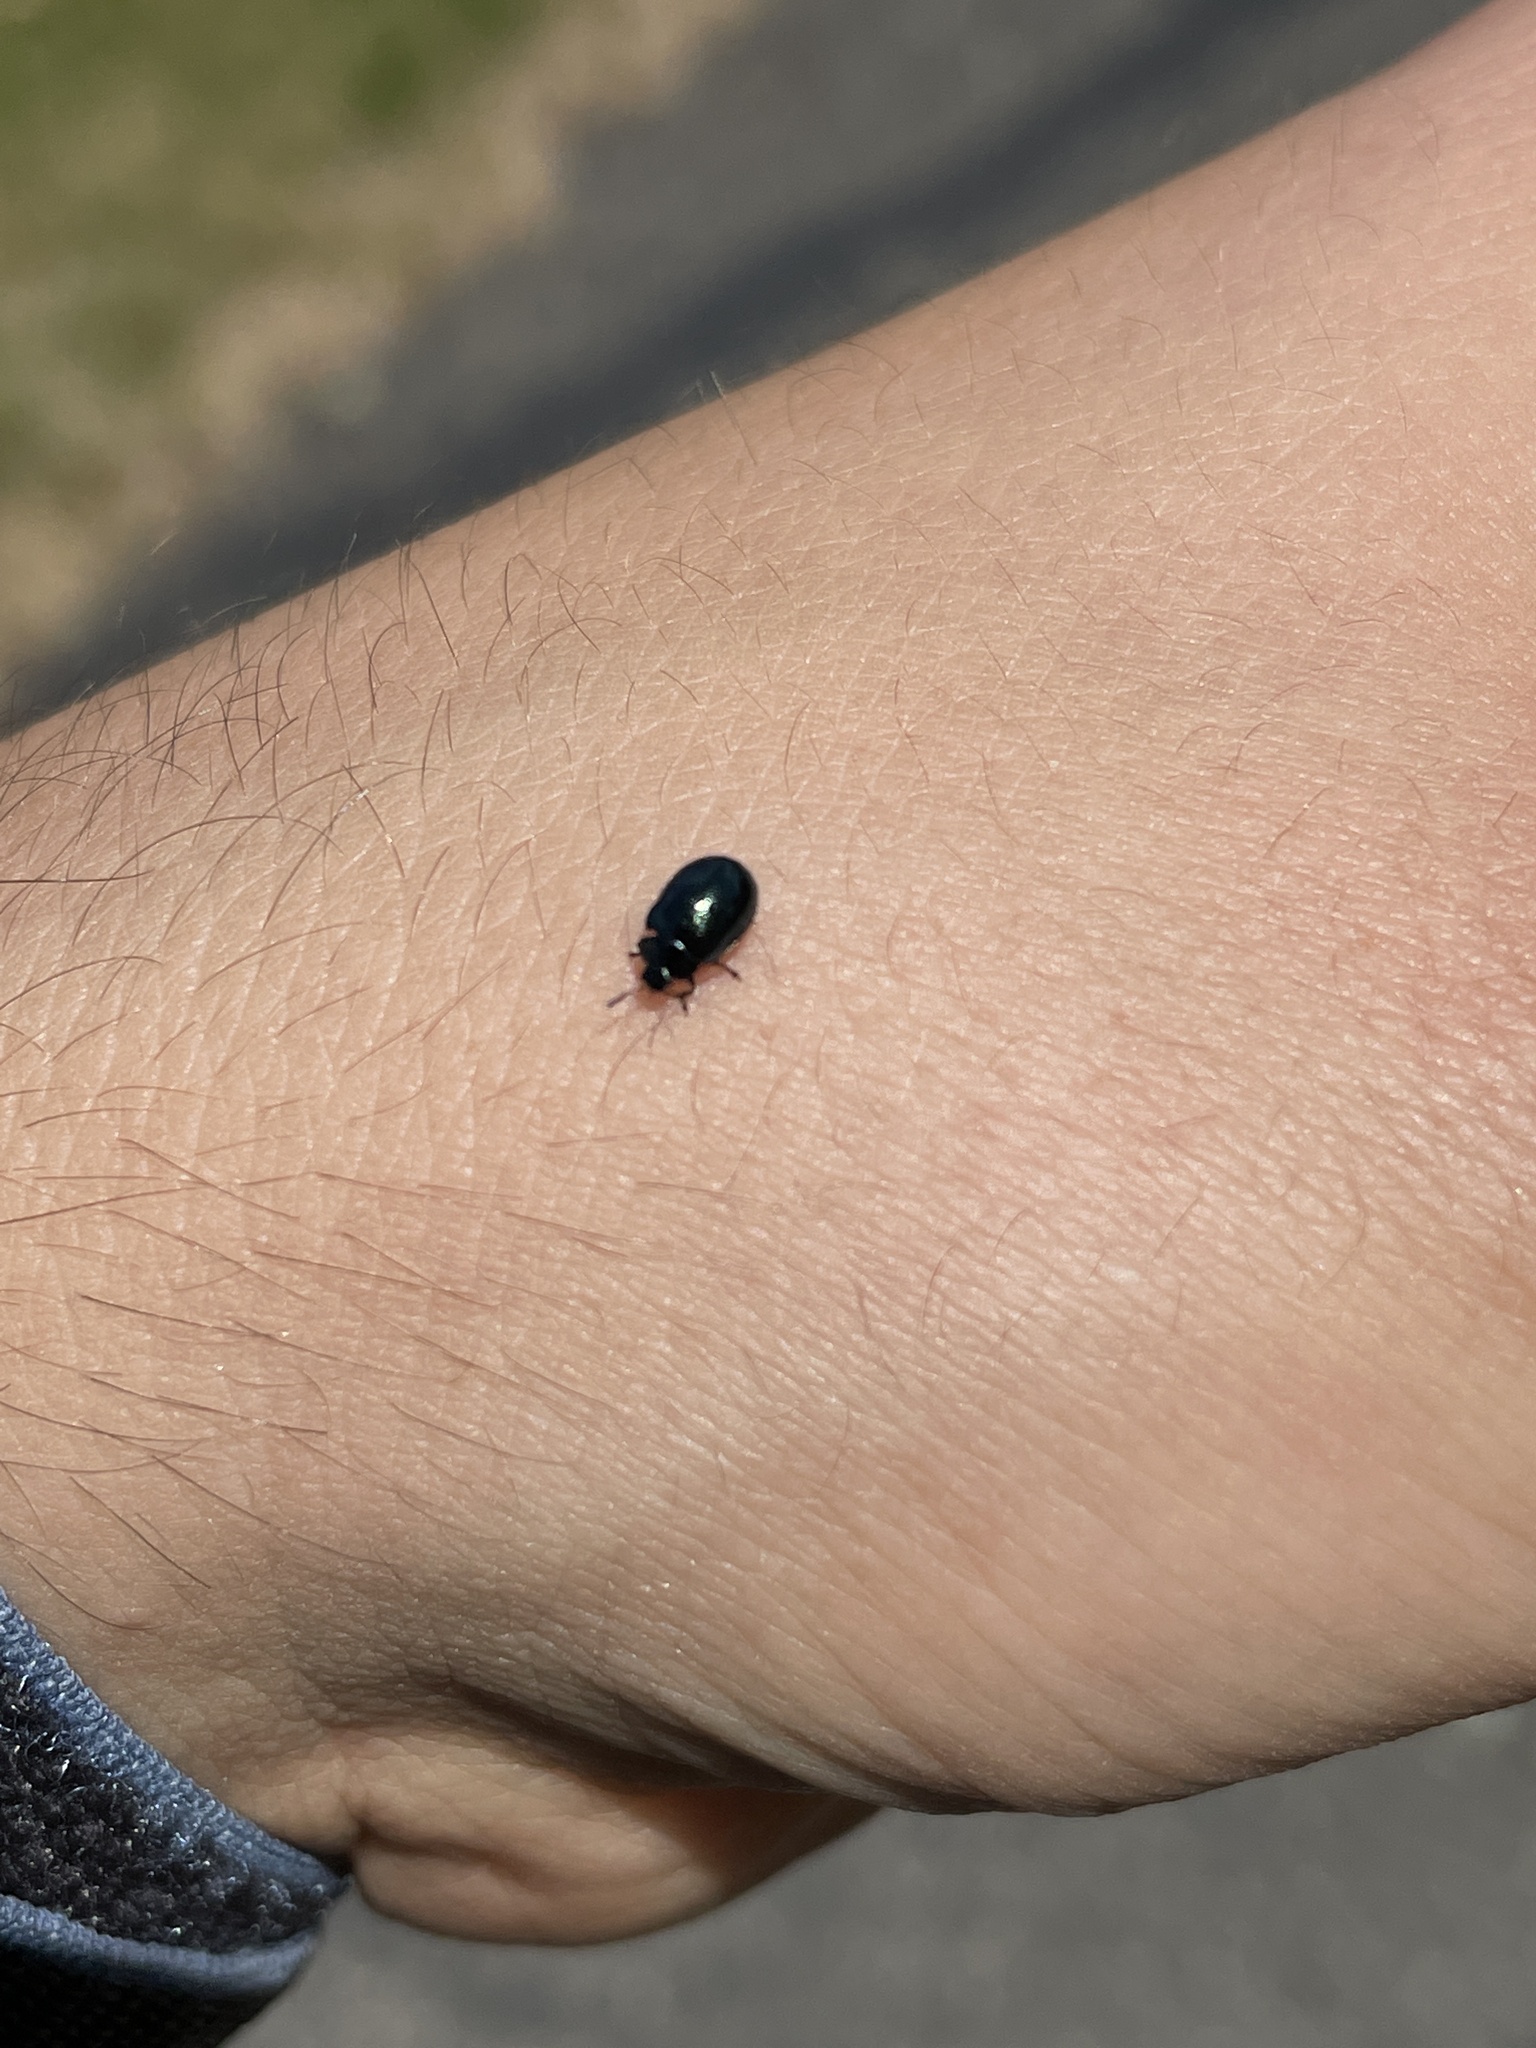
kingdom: Animalia
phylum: Arthropoda
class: Insecta
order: Coleoptera
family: Chrysomelidae
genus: Plagiodera
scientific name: Plagiodera versicolora
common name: Imported willow leaf beetle
